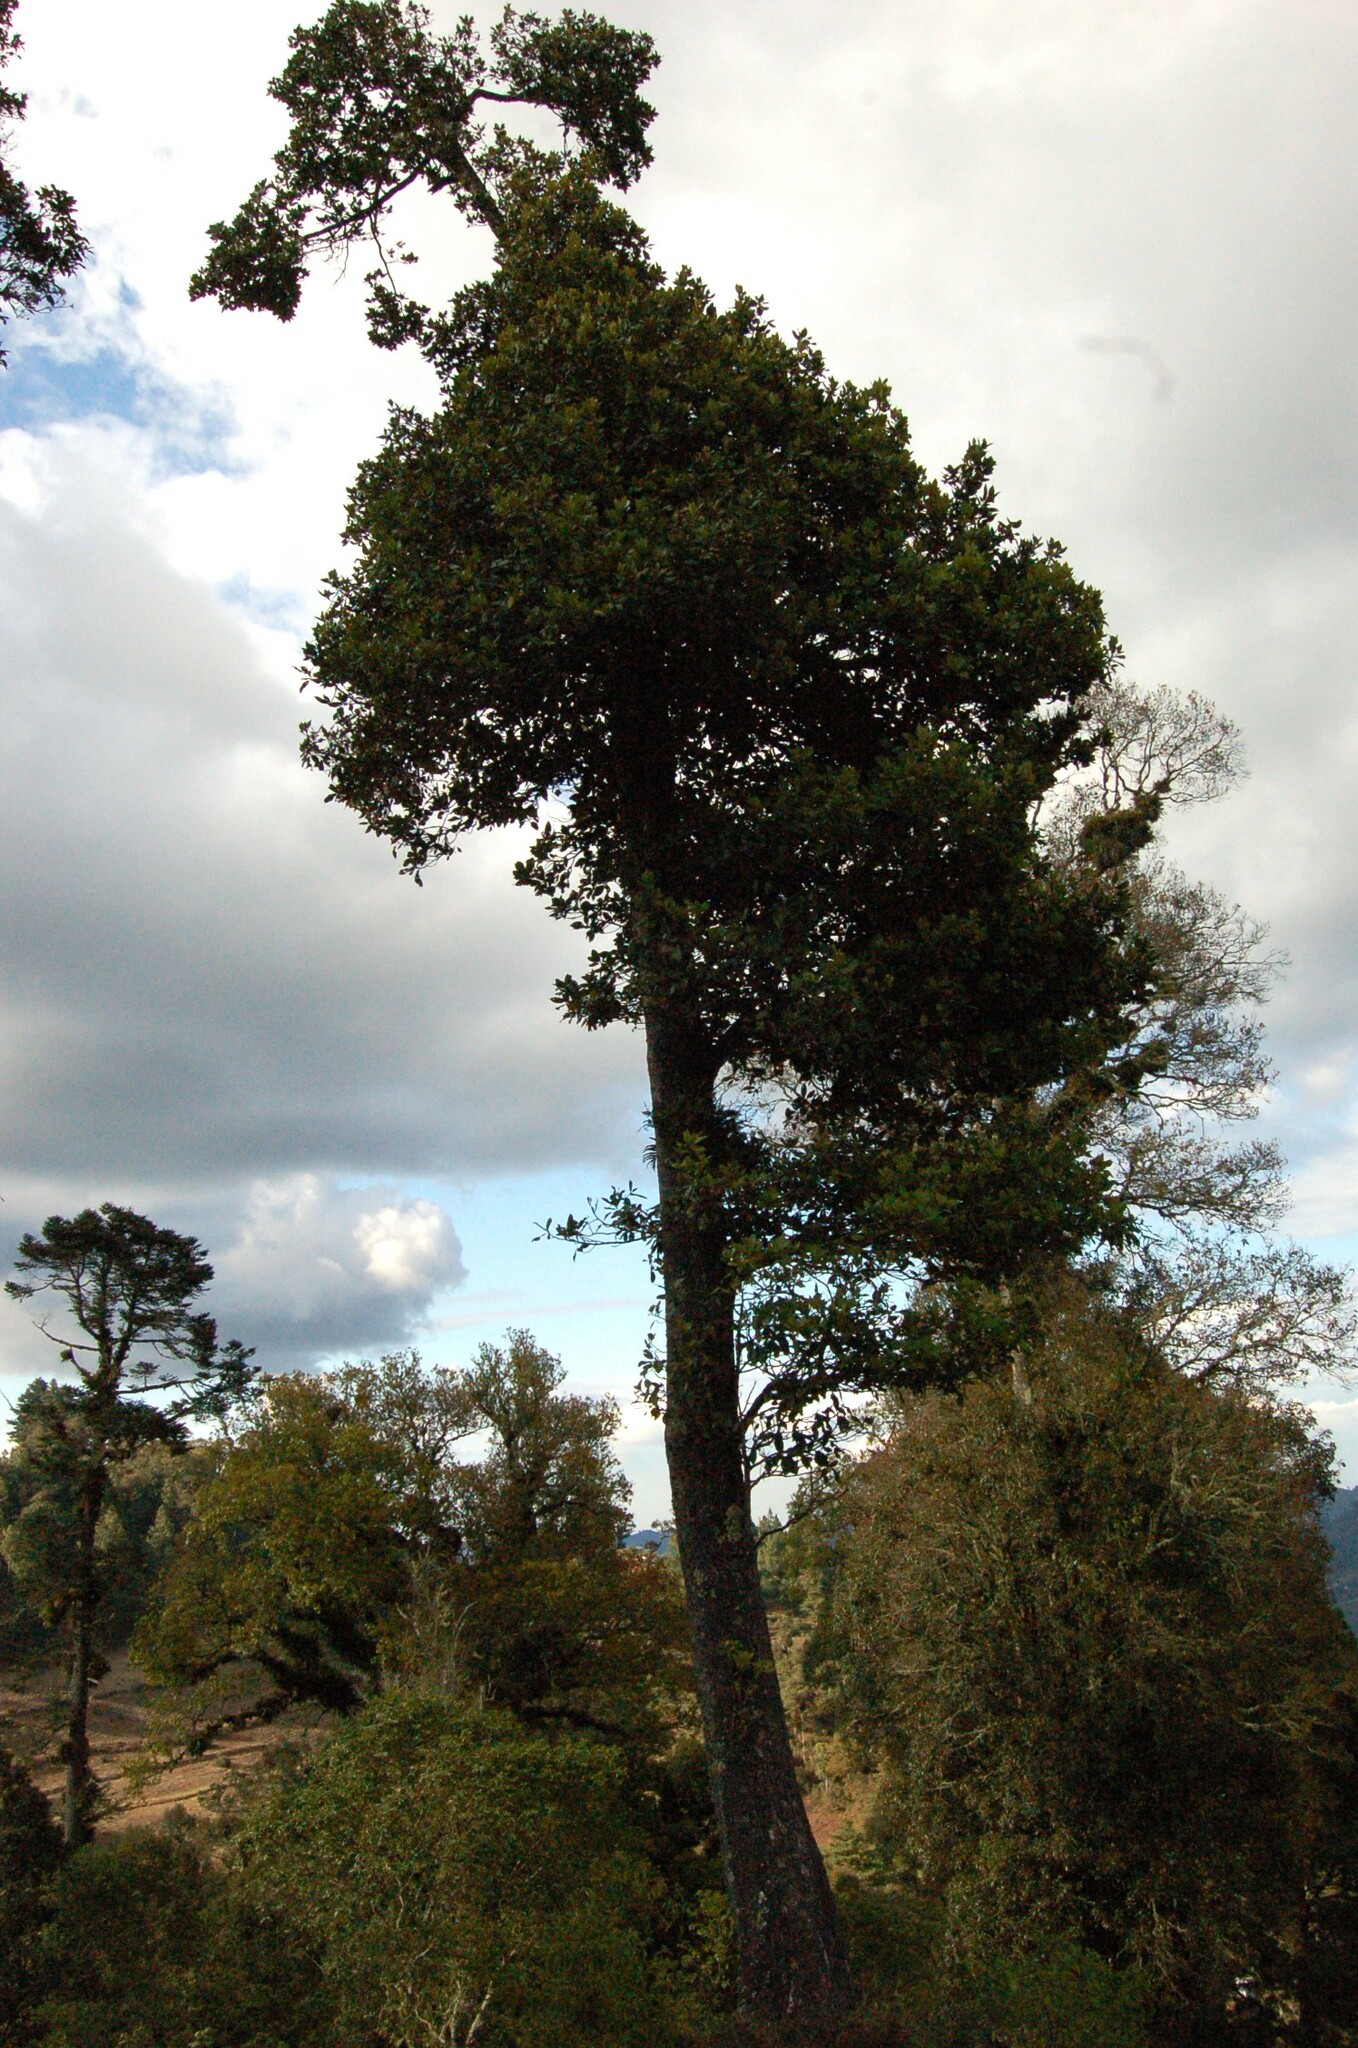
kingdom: Plantae
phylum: Tracheophyta
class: Magnoliopsida
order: Laurales
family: Lauraceae
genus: Persea
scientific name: Persea vesticula
